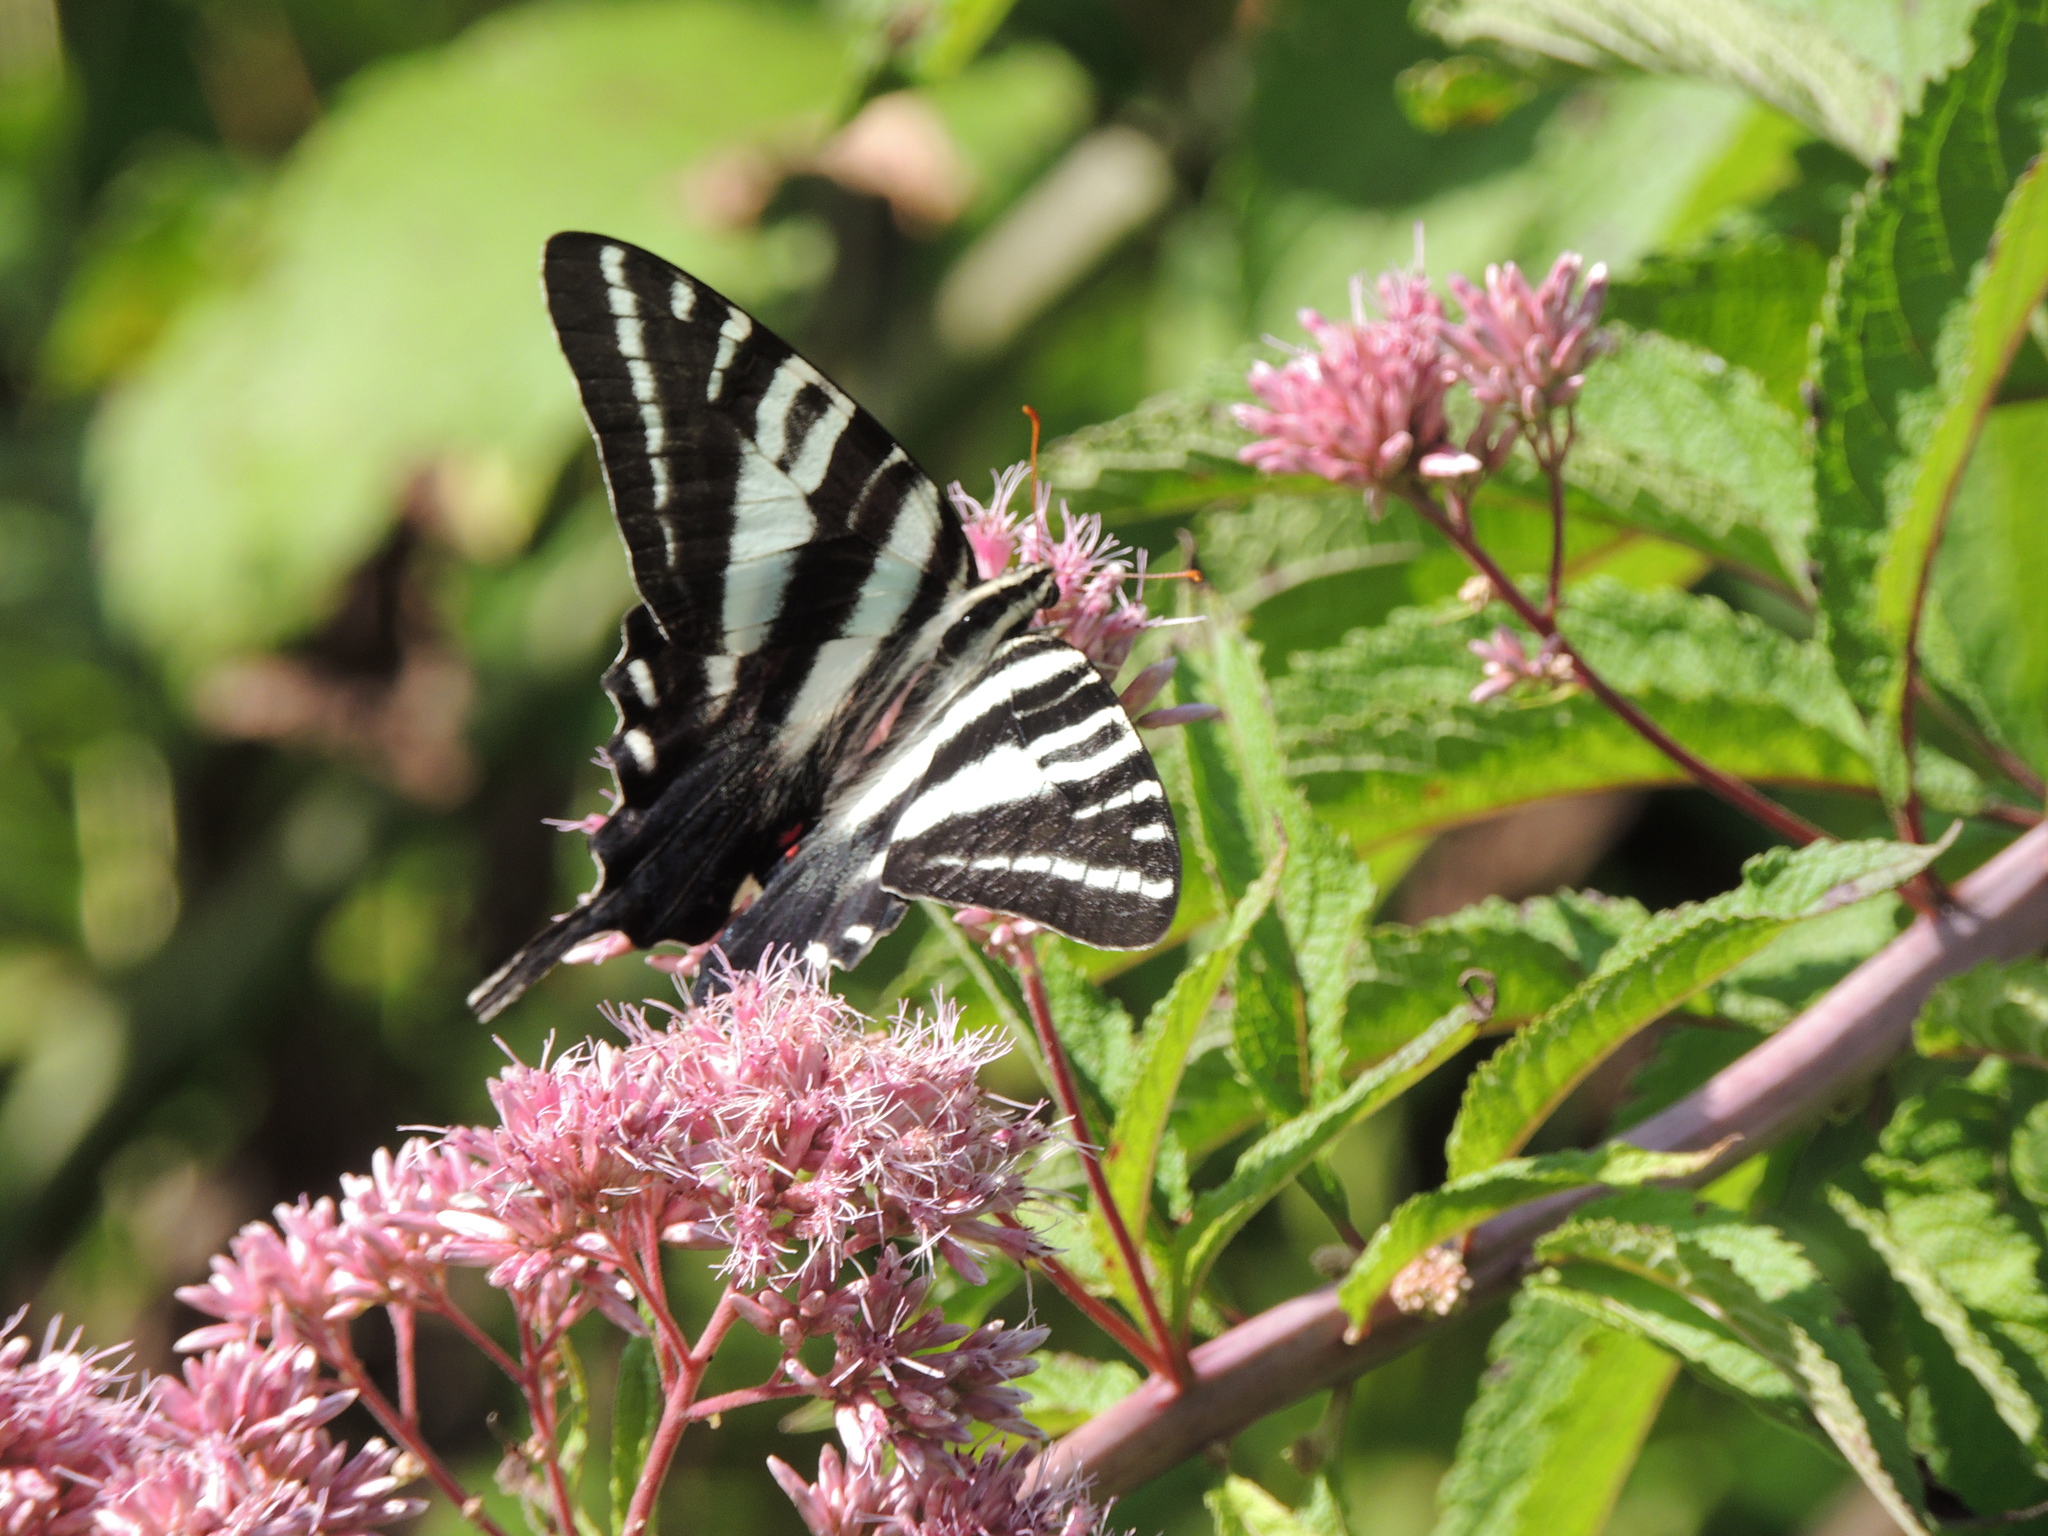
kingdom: Animalia
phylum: Arthropoda
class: Insecta
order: Lepidoptera
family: Papilionidae
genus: Protographium
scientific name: Protographium marcellus
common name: Zebra swallowtail
